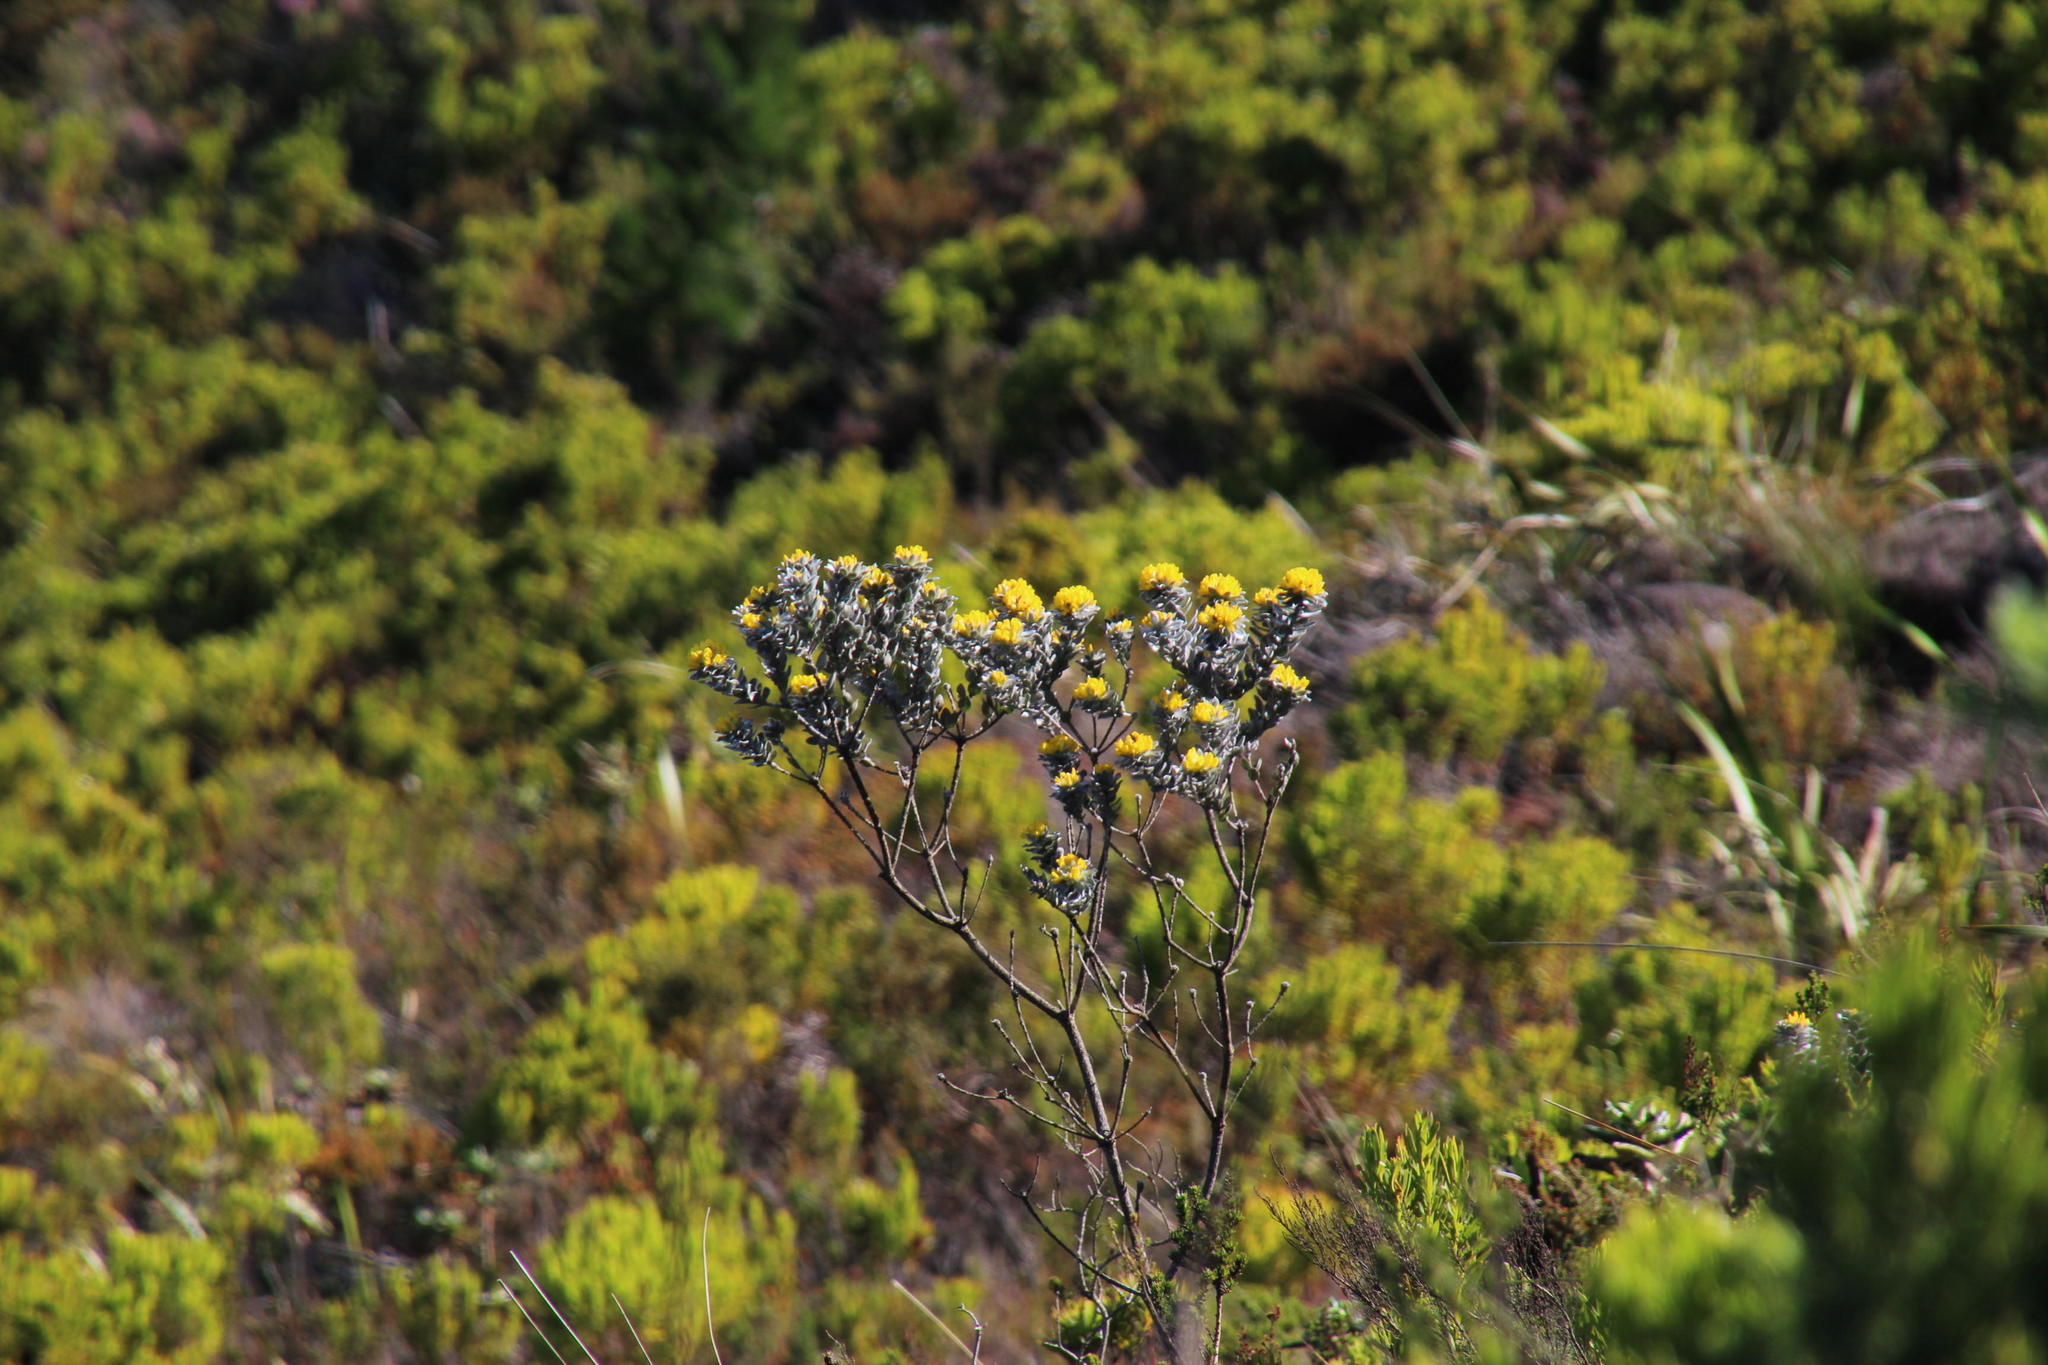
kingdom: Plantae
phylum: Tracheophyta
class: Magnoliopsida
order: Fabales
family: Fabaceae
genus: Xiphotheca
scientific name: Xiphotheca fruticosa
